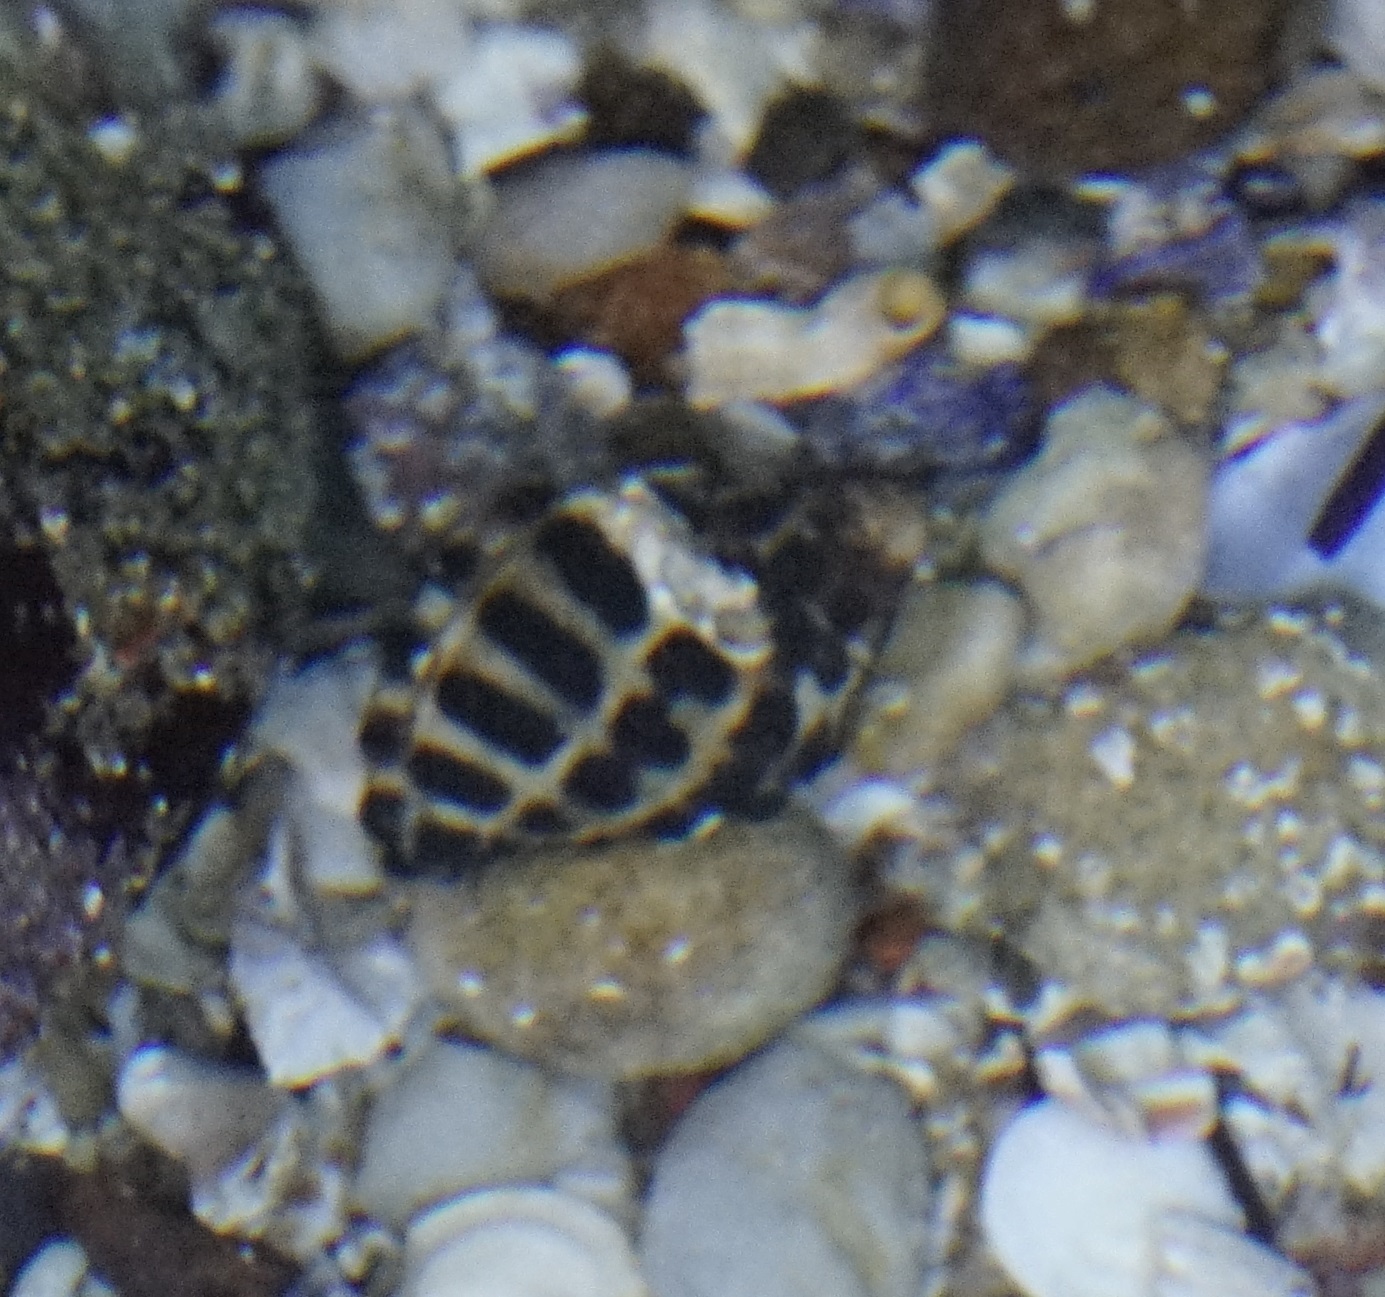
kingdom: Animalia
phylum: Mollusca
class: Gastropoda
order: Neogastropoda
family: Muricidae
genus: Tenguella
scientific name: Tenguella marginalba
